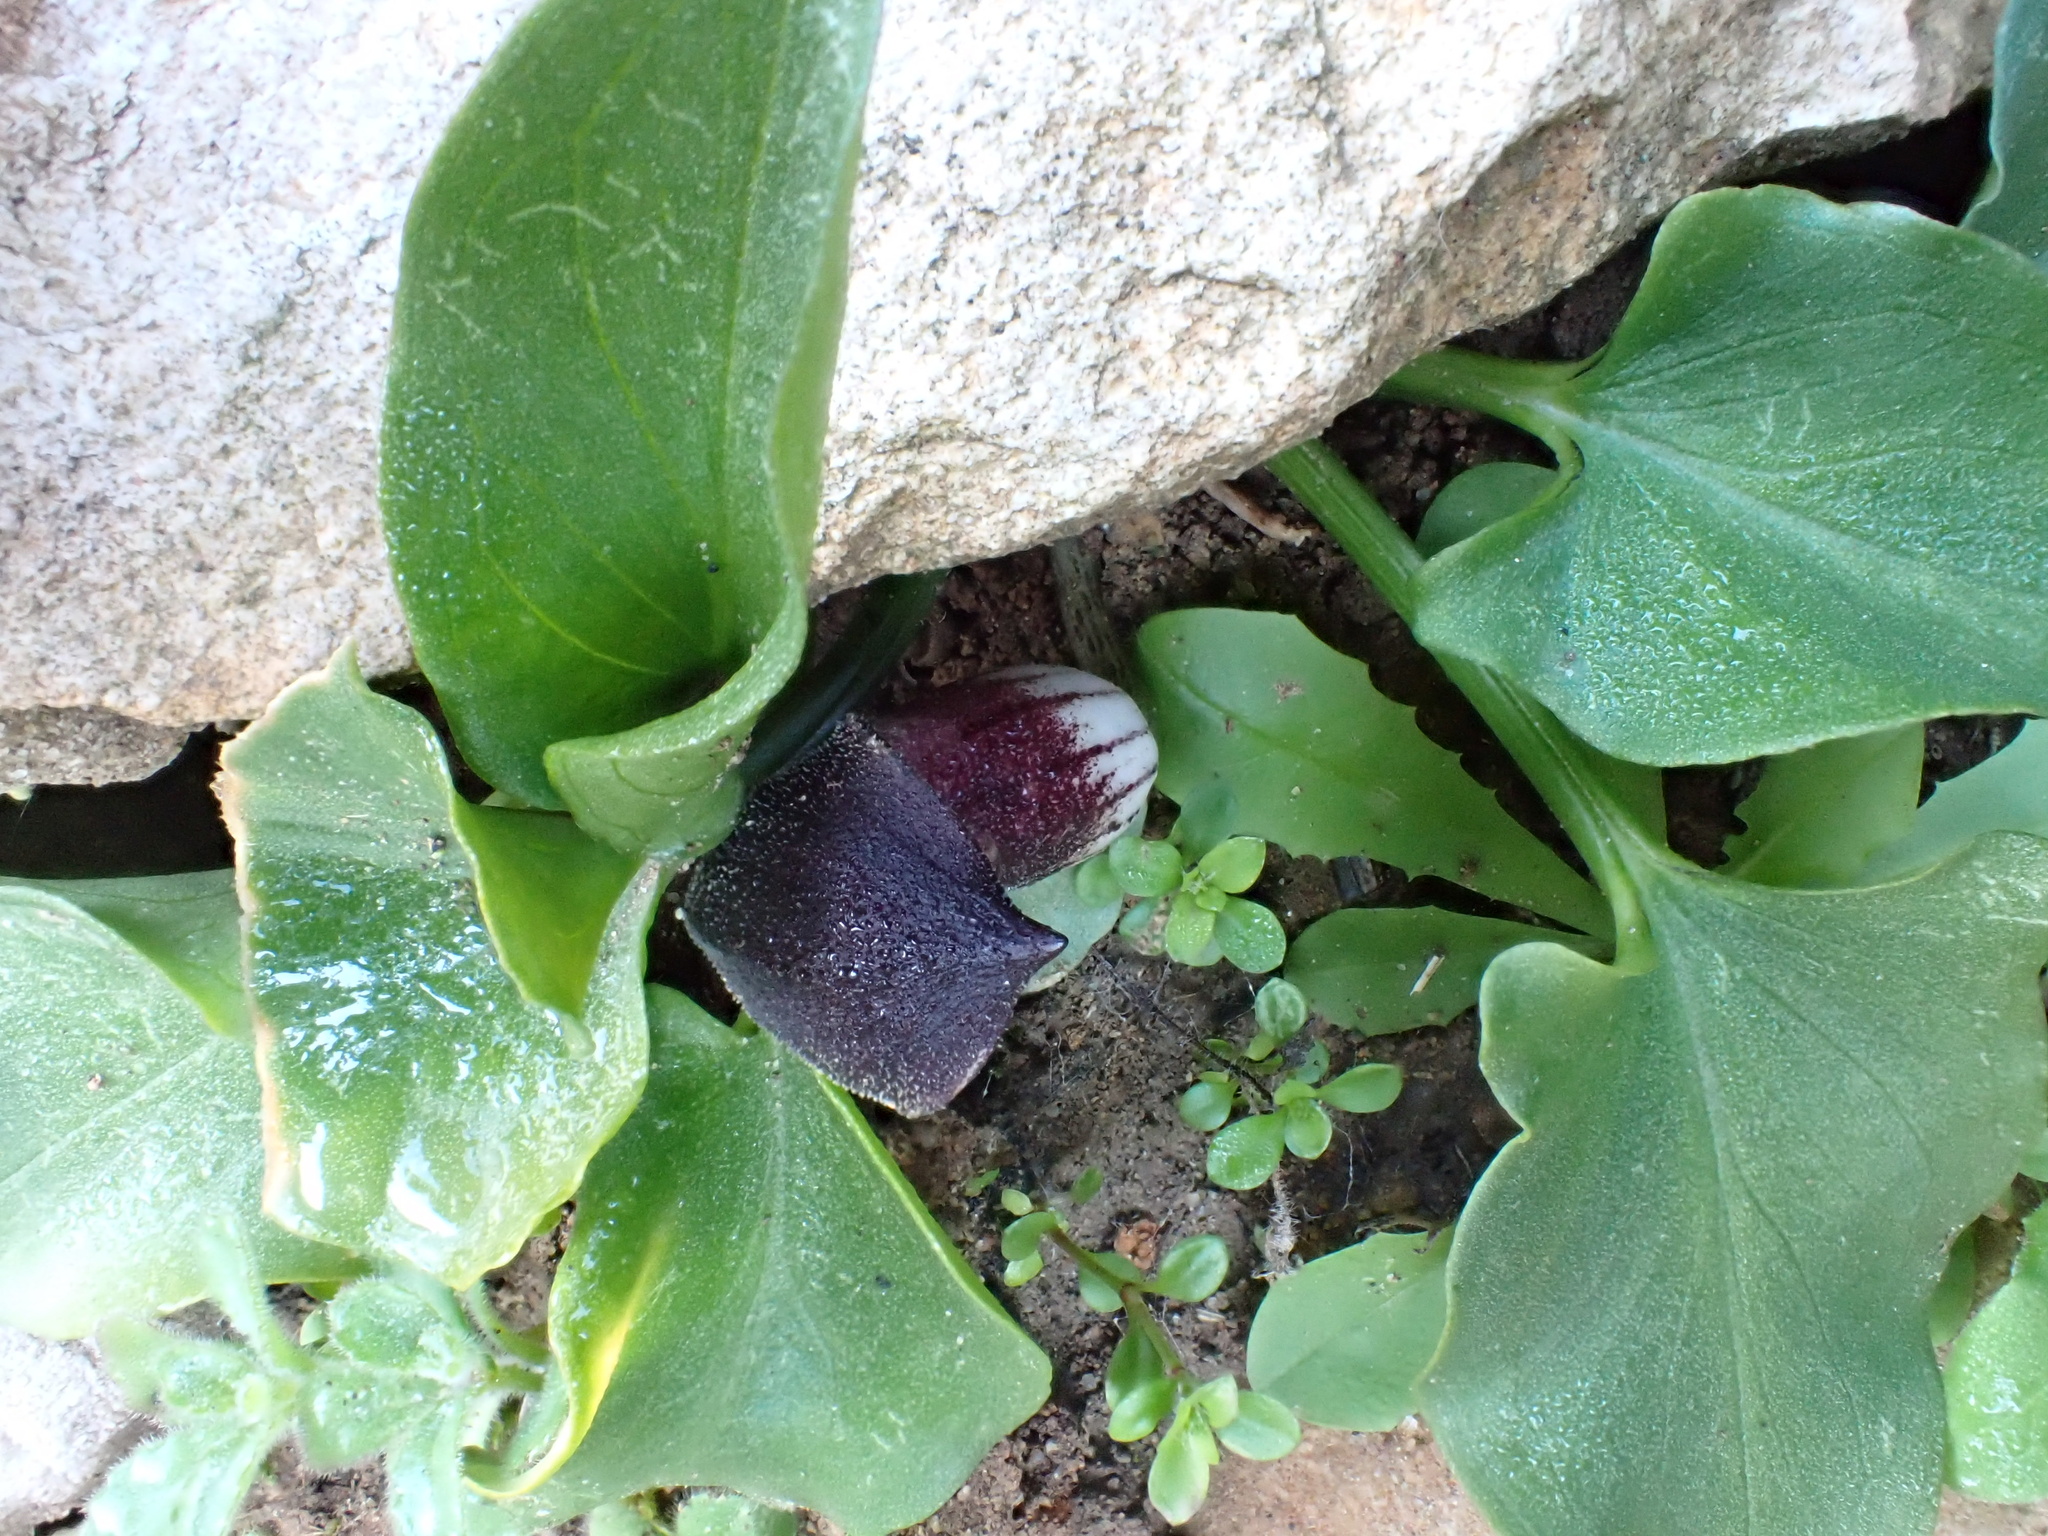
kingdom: Plantae
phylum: Tracheophyta
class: Liliopsida
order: Alismatales
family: Araceae
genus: Arisarum
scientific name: Arisarum simorrhinum
